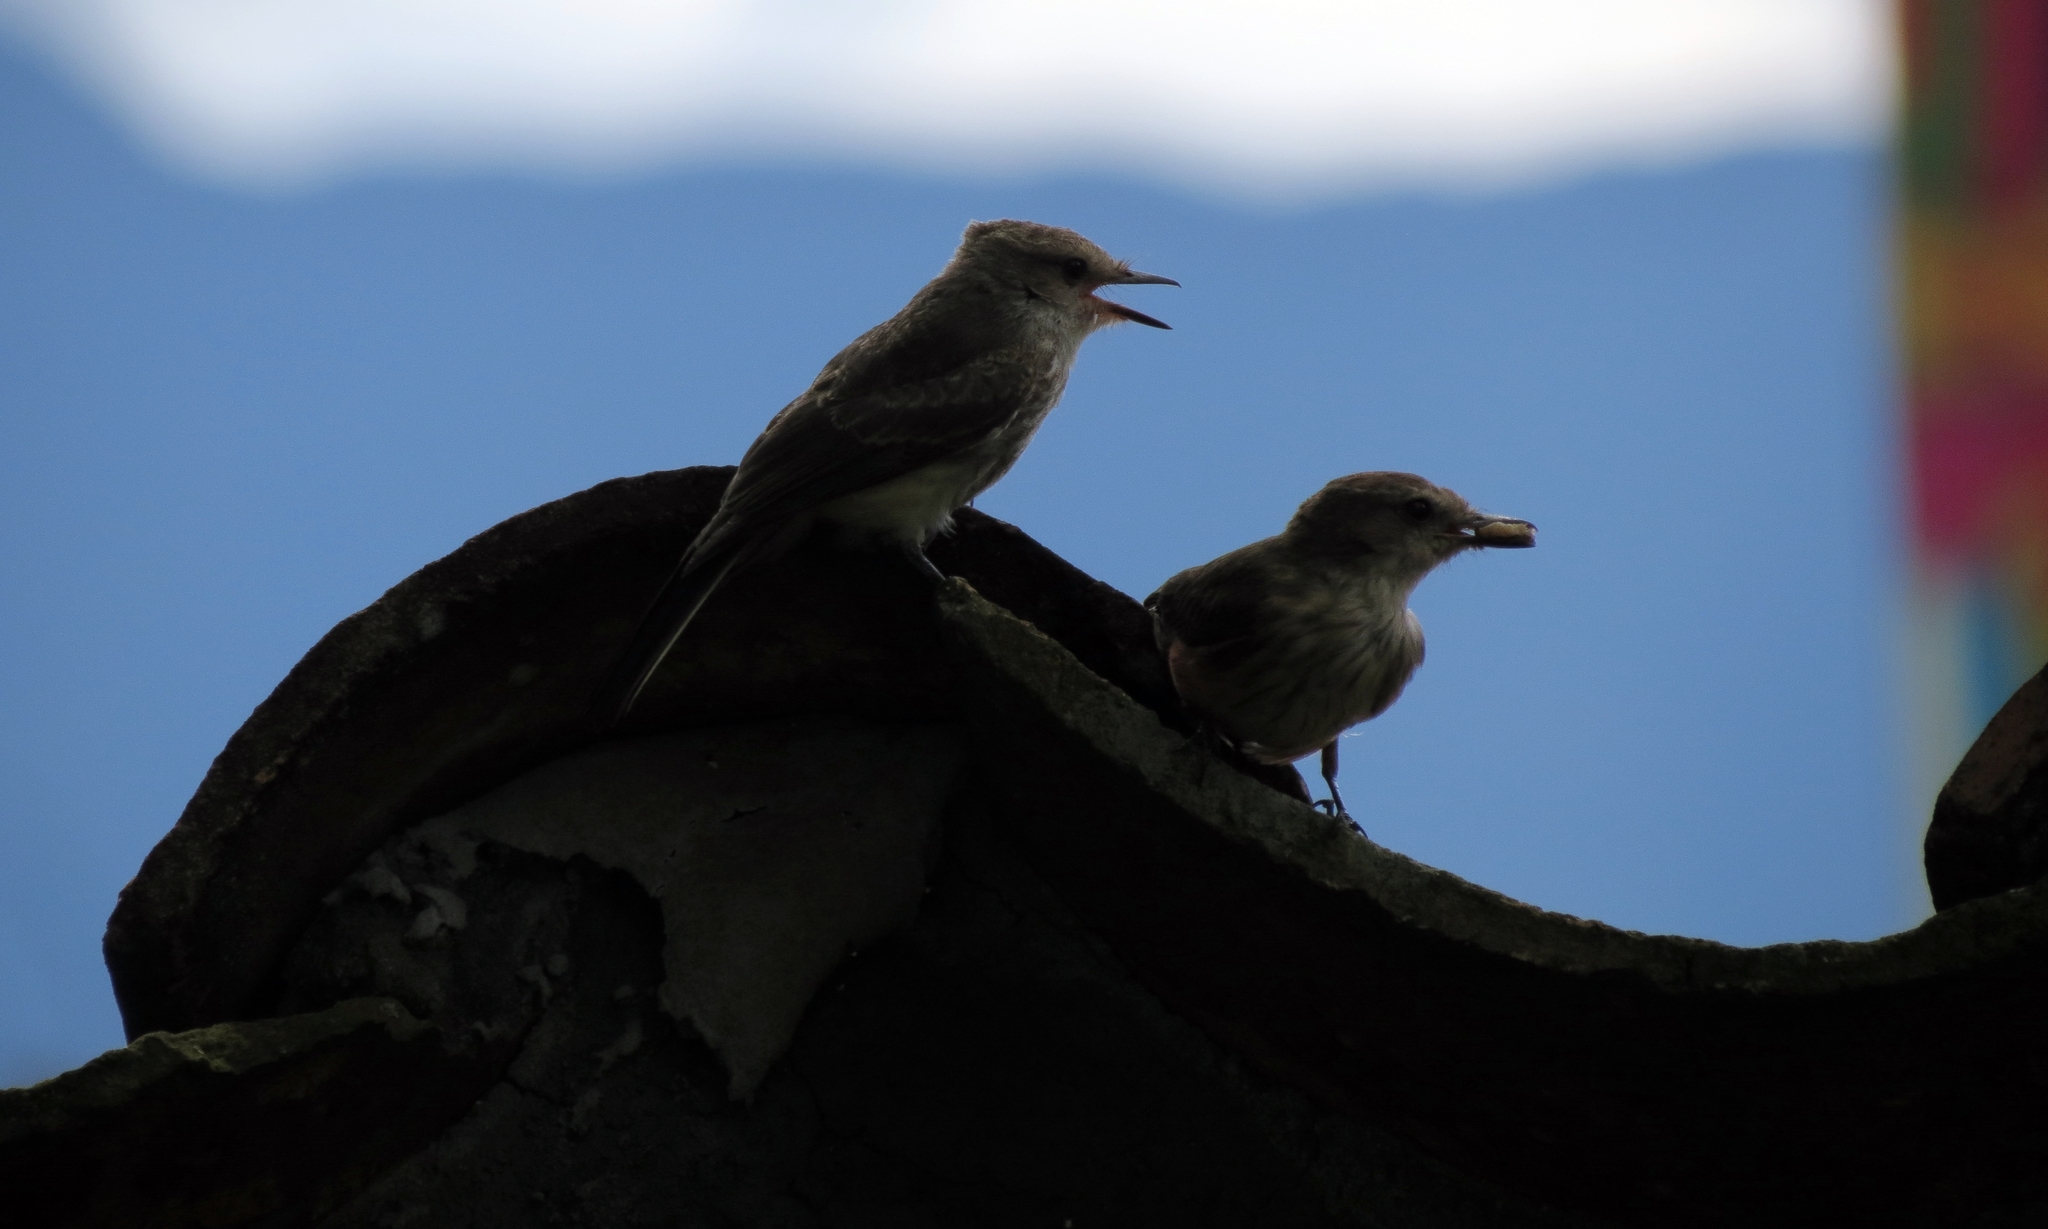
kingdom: Animalia
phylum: Chordata
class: Aves
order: Passeriformes
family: Tyrannidae
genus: Pyrocephalus
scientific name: Pyrocephalus rubinus
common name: Vermilion flycatcher
